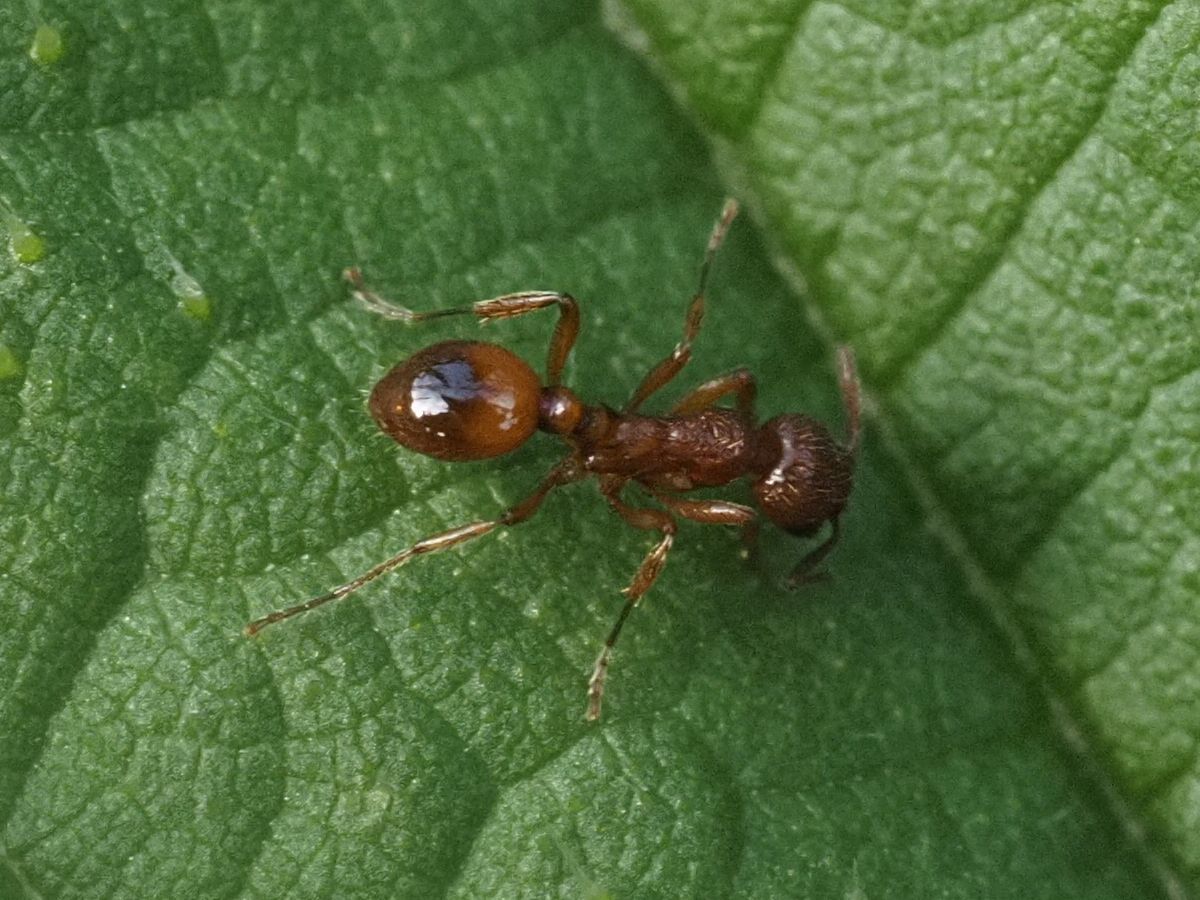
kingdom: Animalia
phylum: Arthropoda
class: Insecta
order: Hymenoptera
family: Formicidae
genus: Myrmica
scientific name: Myrmica rubra
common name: European fire ant
